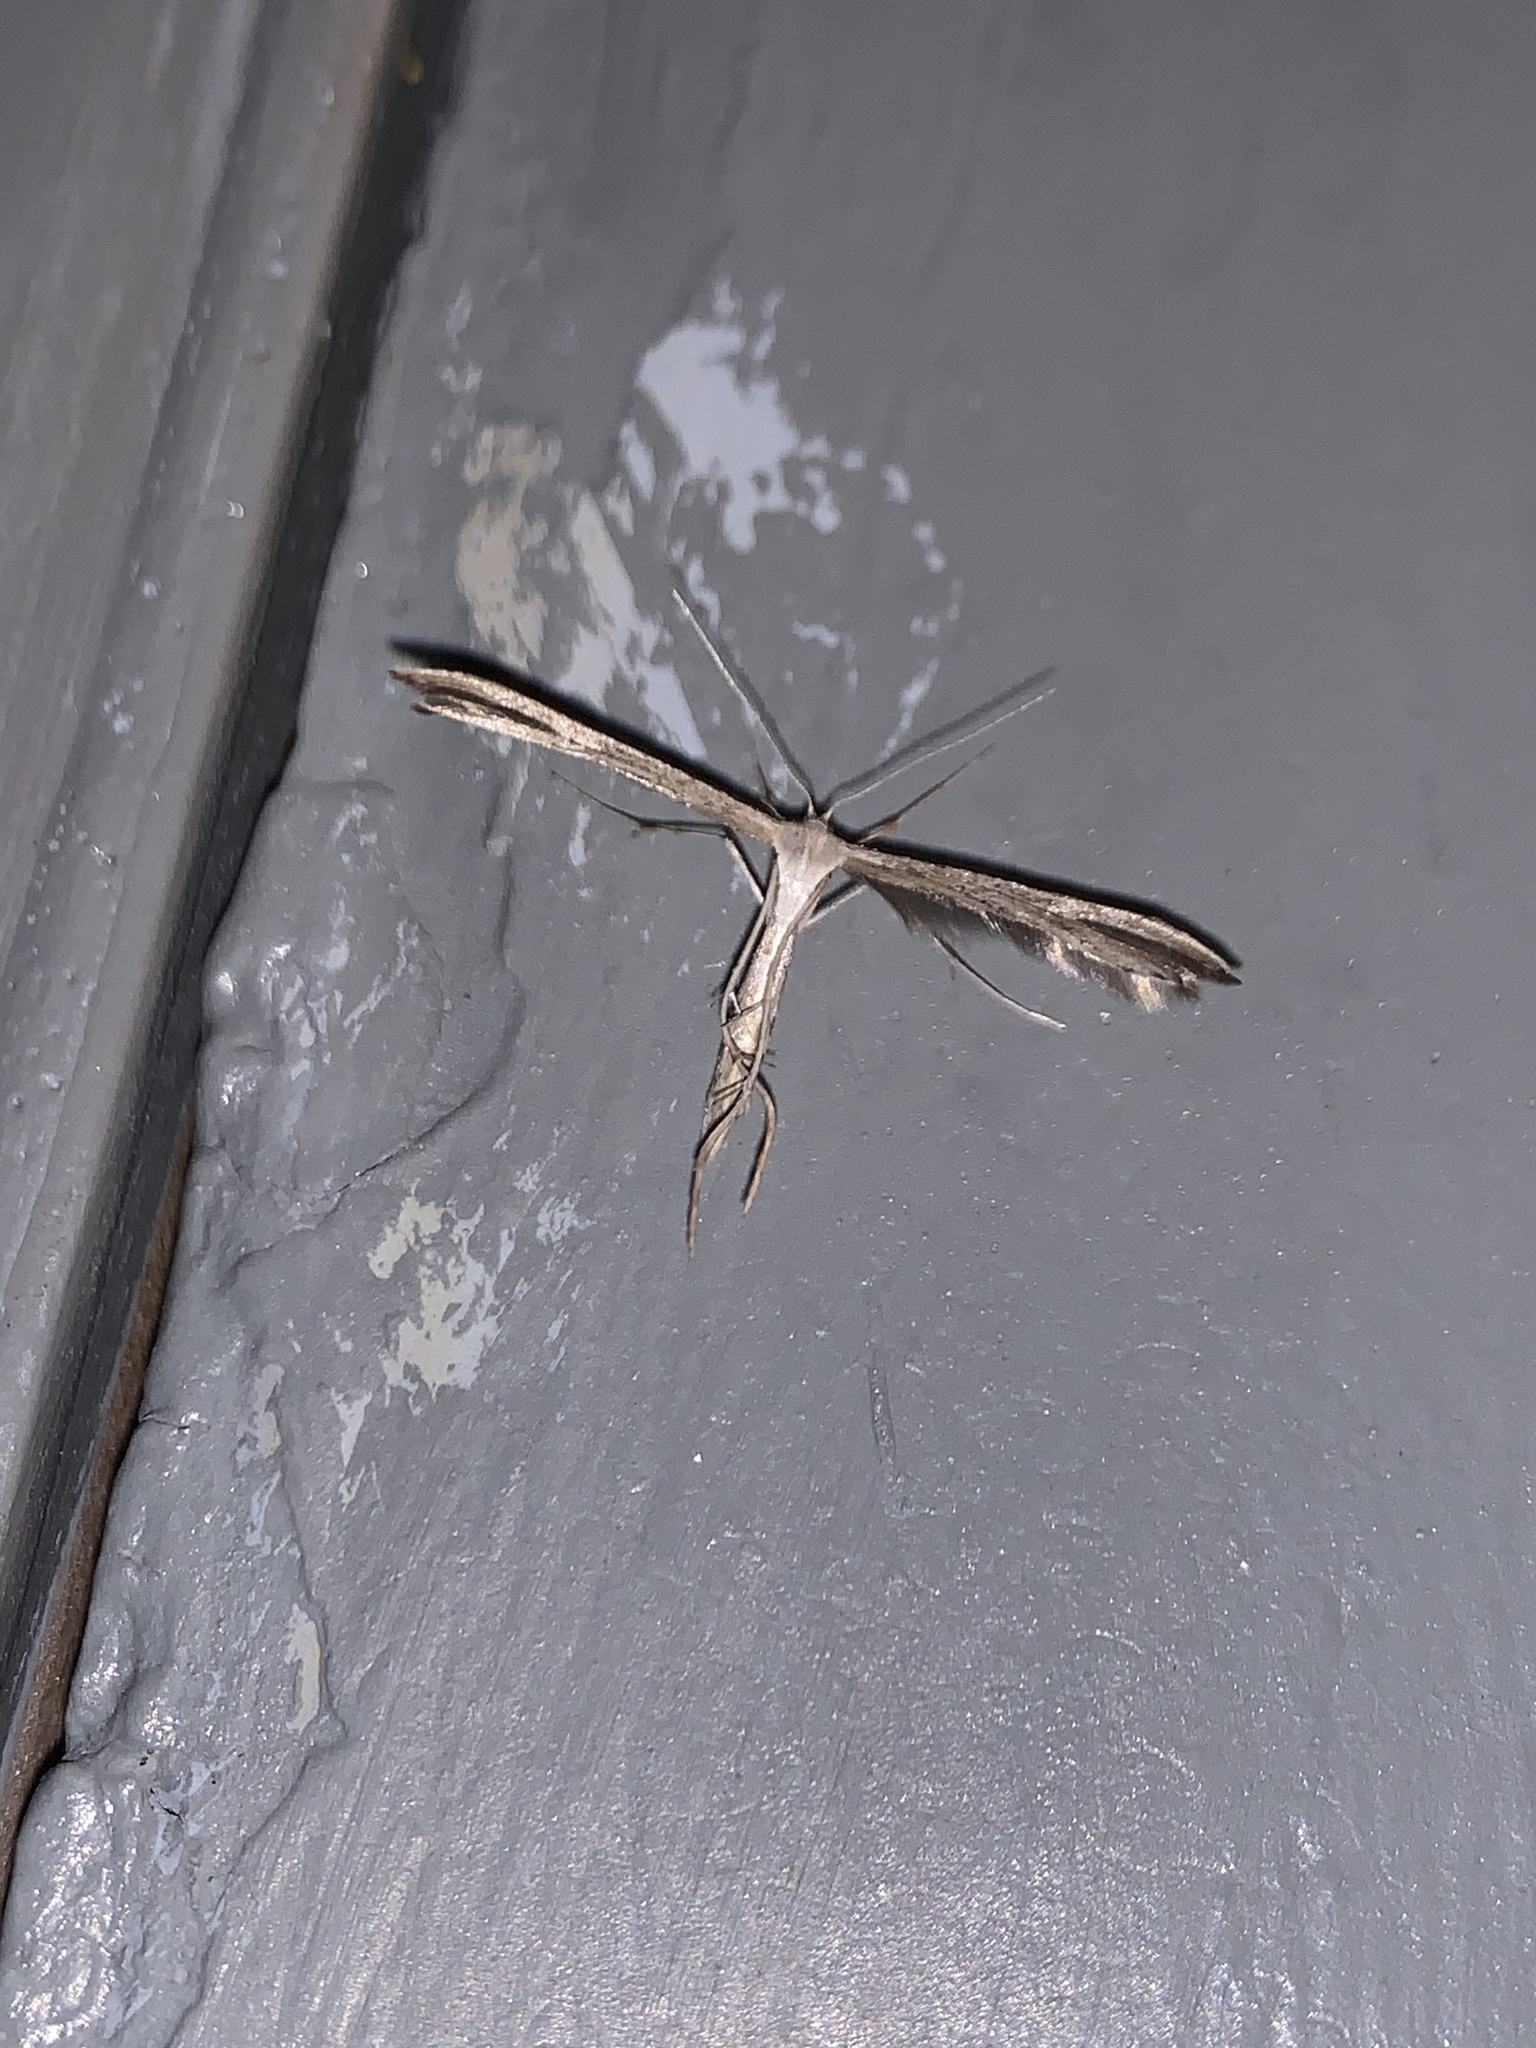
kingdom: Animalia
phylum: Arthropoda
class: Insecta
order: Lepidoptera
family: Pterophoridae
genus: Emmelina
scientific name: Emmelina monodactyla
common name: Common plume
